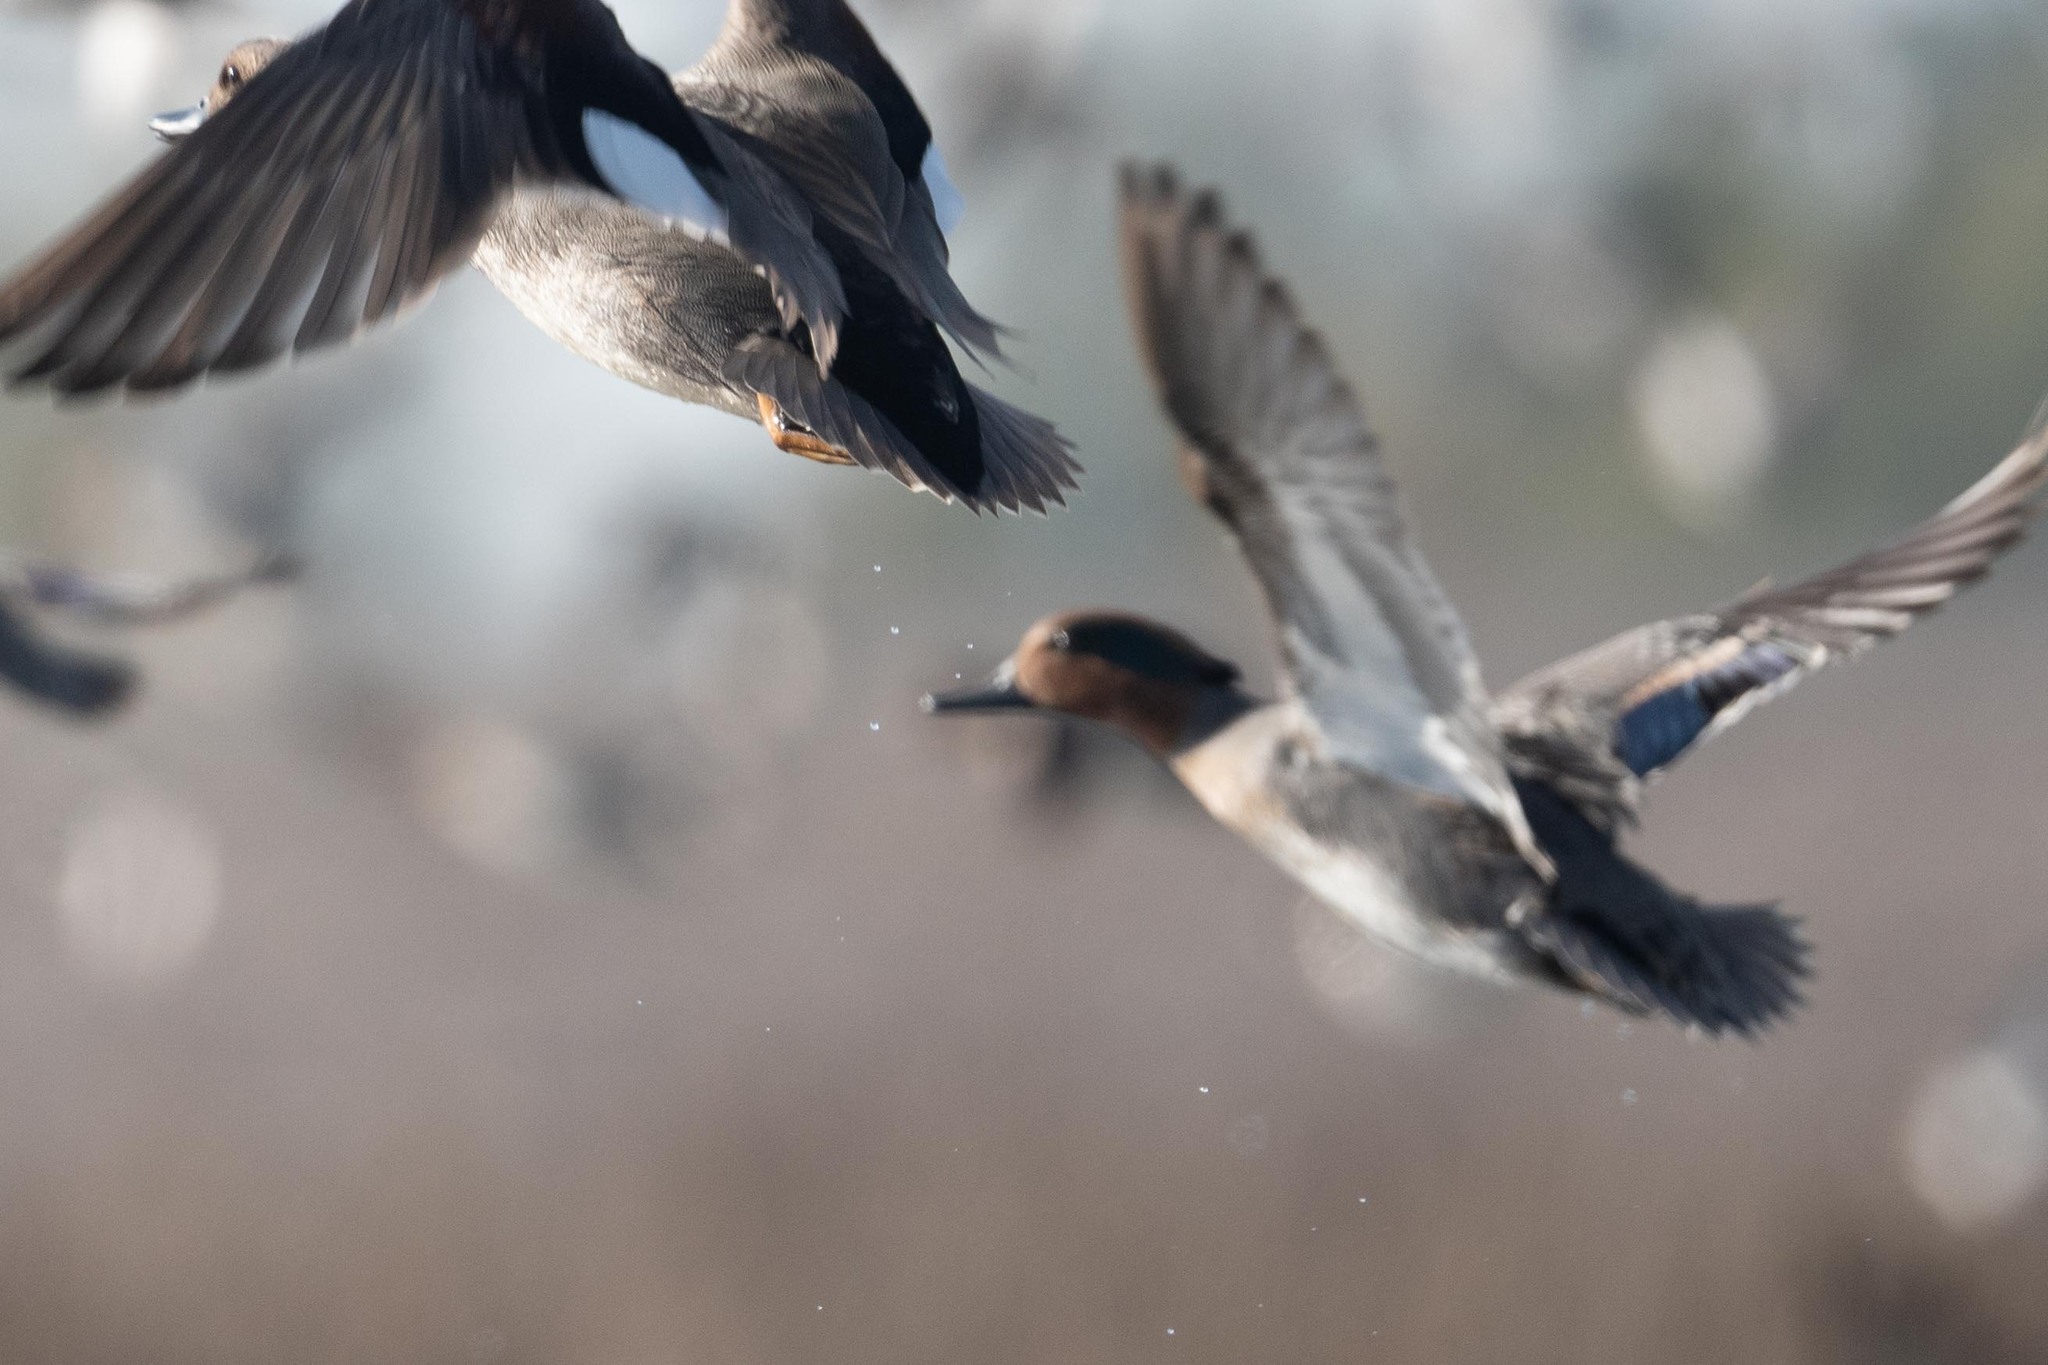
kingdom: Animalia
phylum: Chordata
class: Aves
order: Anseriformes
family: Anatidae
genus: Mareca
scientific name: Mareca strepera
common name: Gadwall
